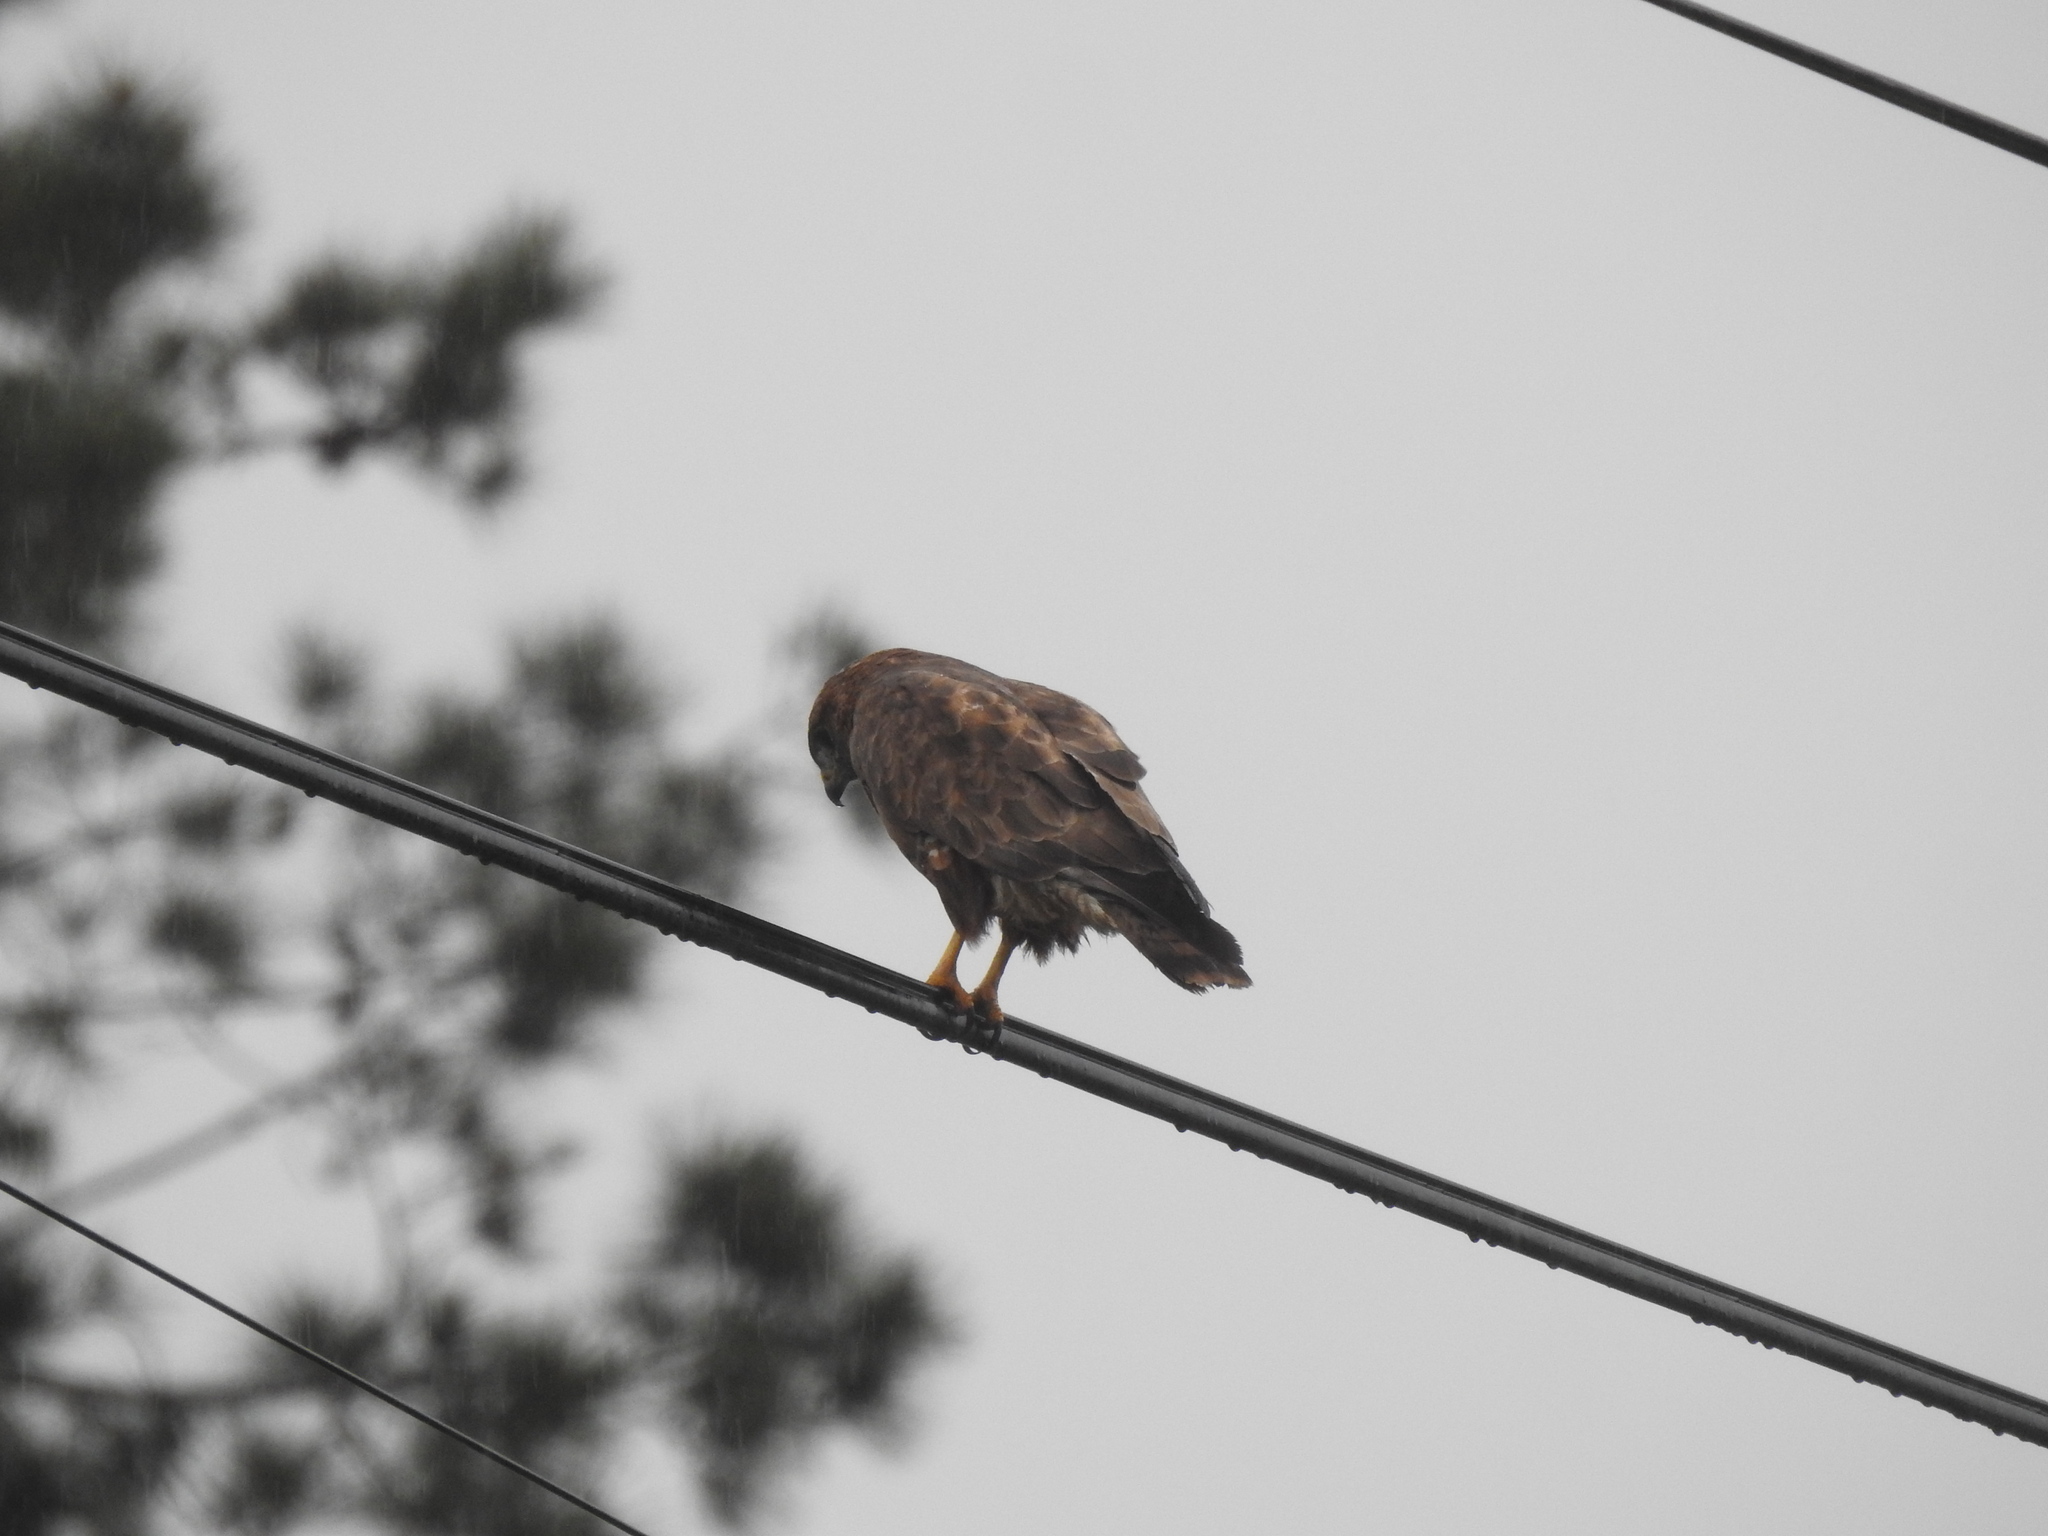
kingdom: Animalia
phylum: Chordata
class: Aves
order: Accipitriformes
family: Accipitridae
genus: Buteo
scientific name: Buteo buteo
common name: Common buzzard
